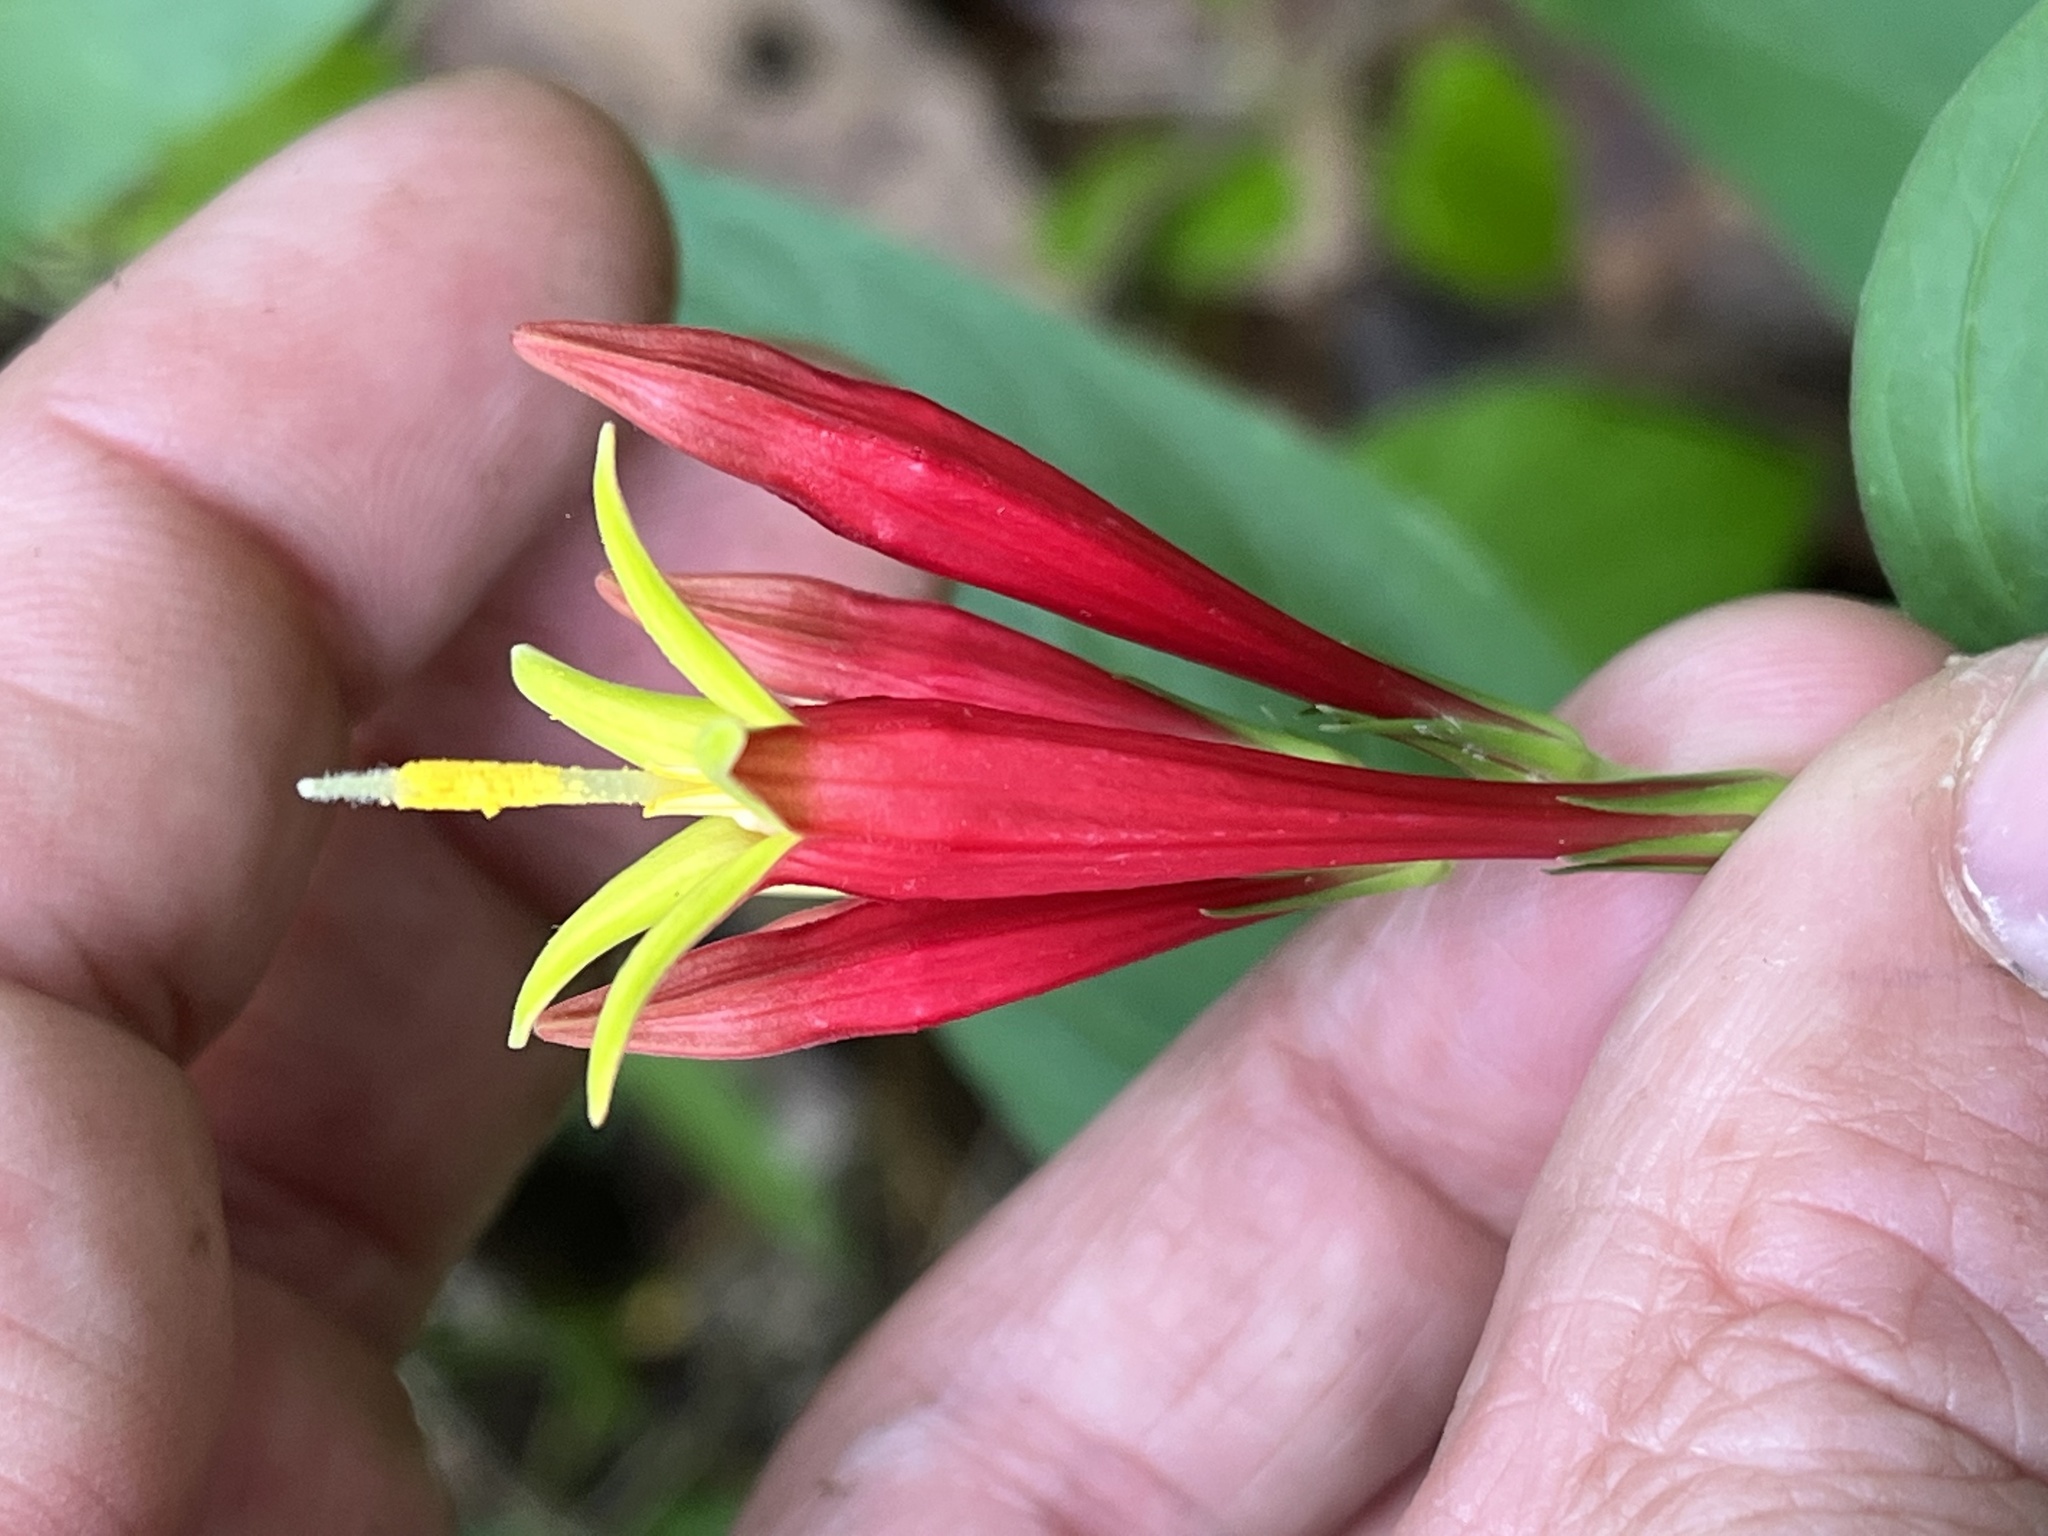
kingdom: Plantae
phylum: Tracheophyta
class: Magnoliopsida
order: Gentianales
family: Loganiaceae
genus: Spigelia
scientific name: Spigelia marilandica
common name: Indian-pink
